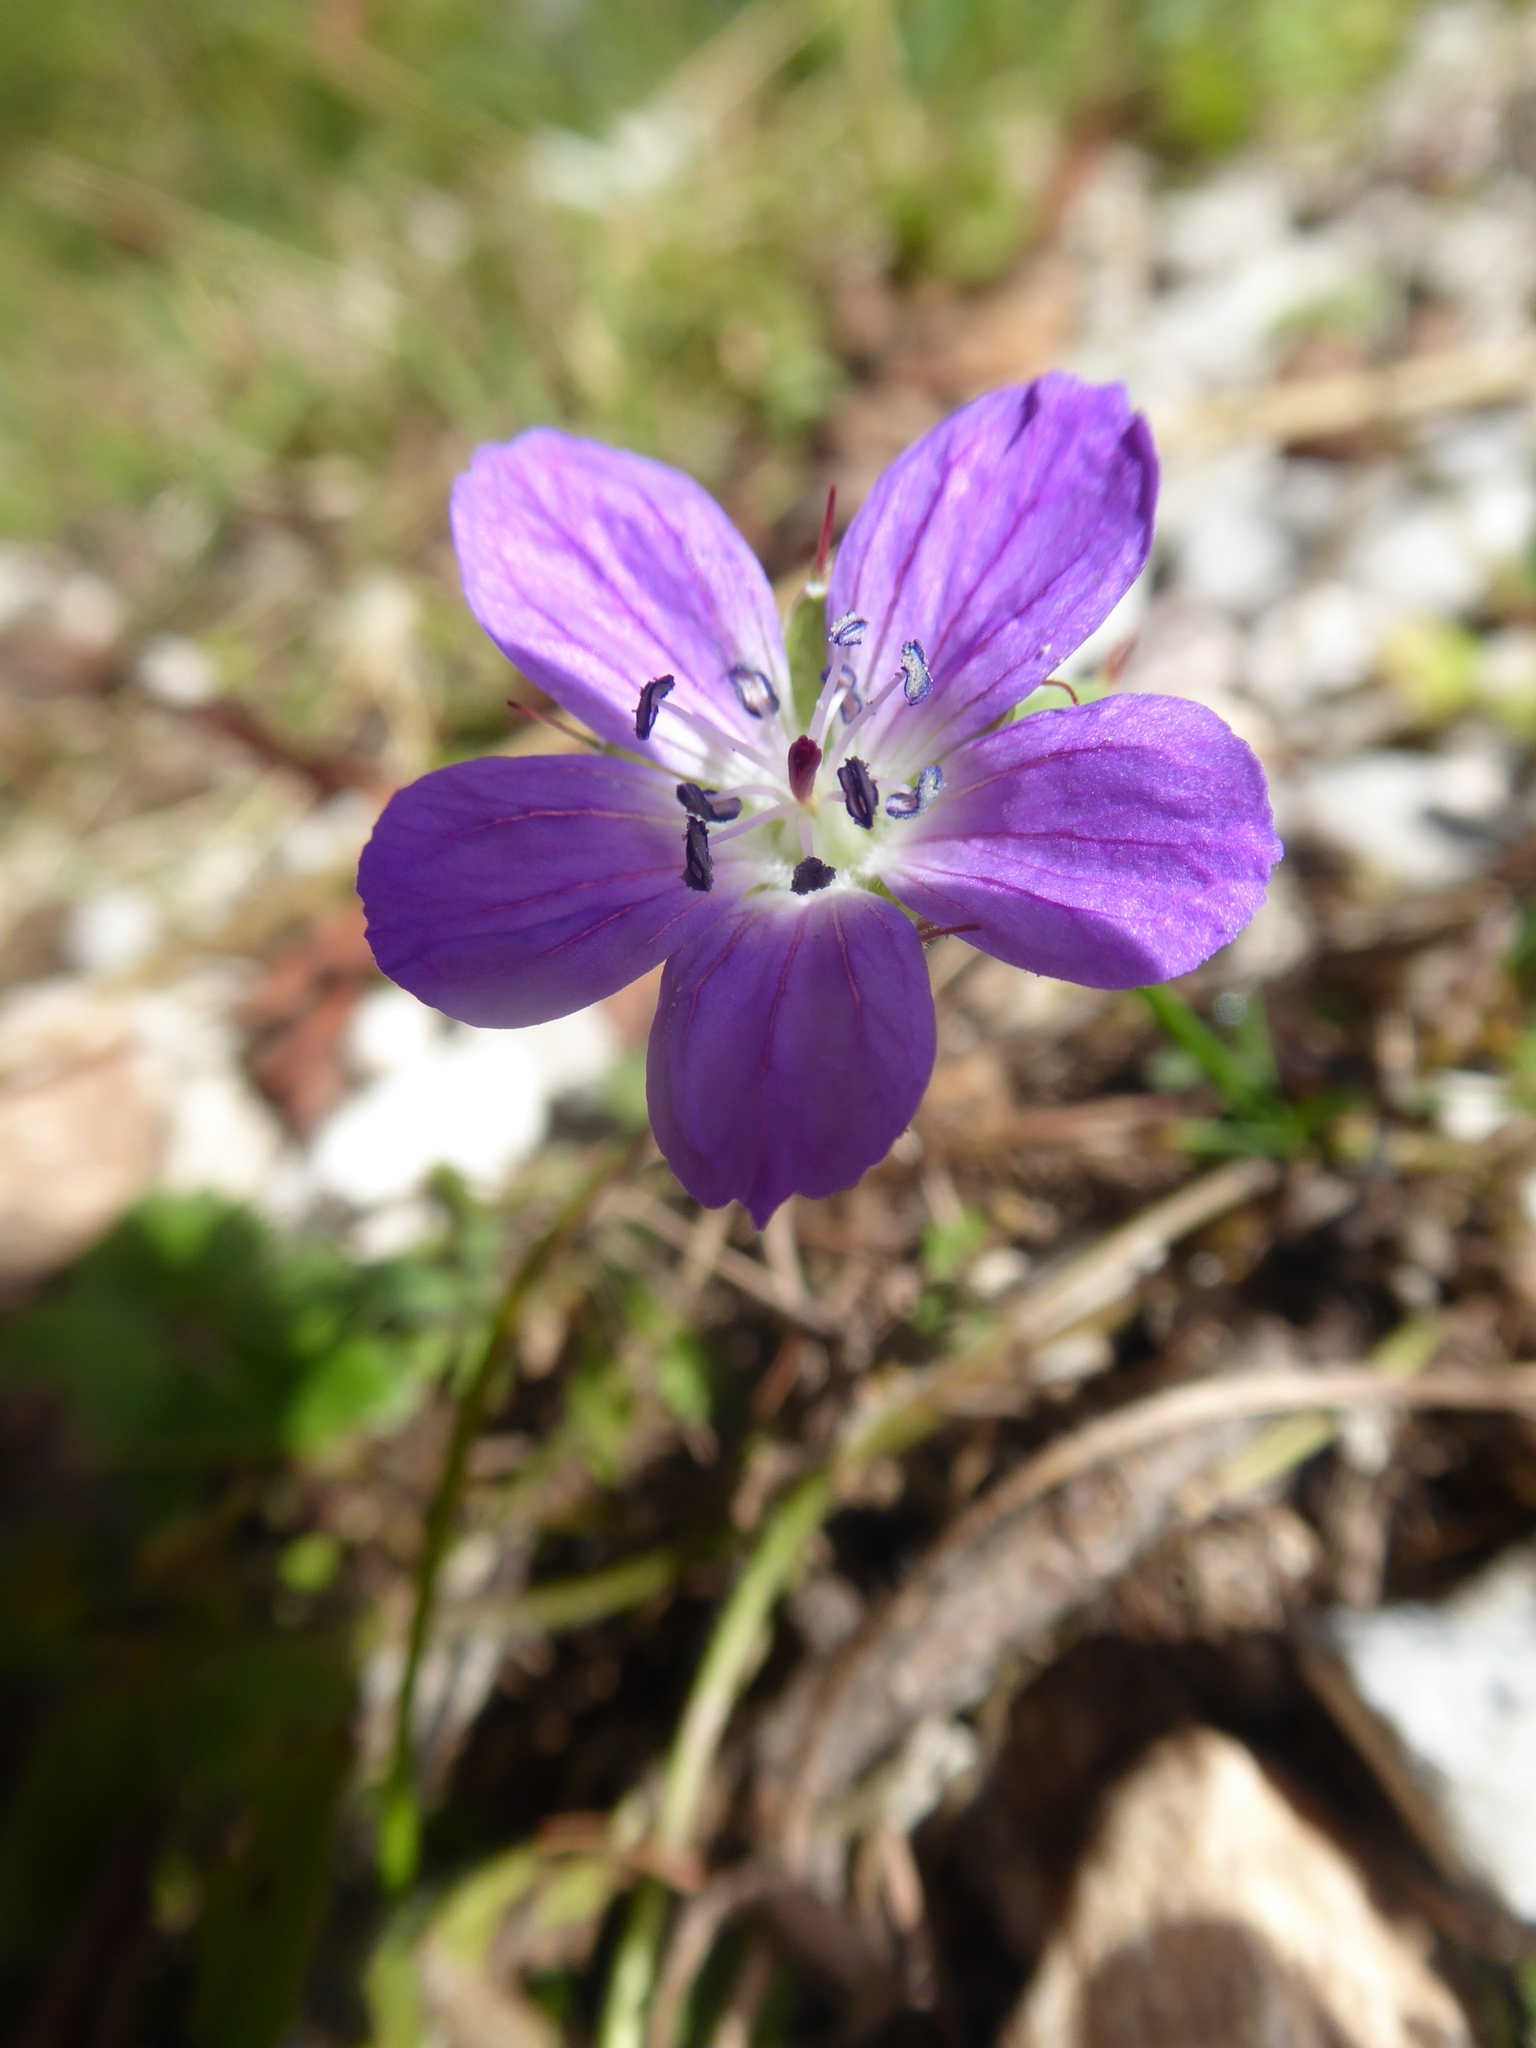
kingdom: Plantae
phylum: Tracheophyta
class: Magnoliopsida
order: Geraniales
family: Geraniaceae
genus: Geranium
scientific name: Geranium sylvaticum
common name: Wood crane's-bill
